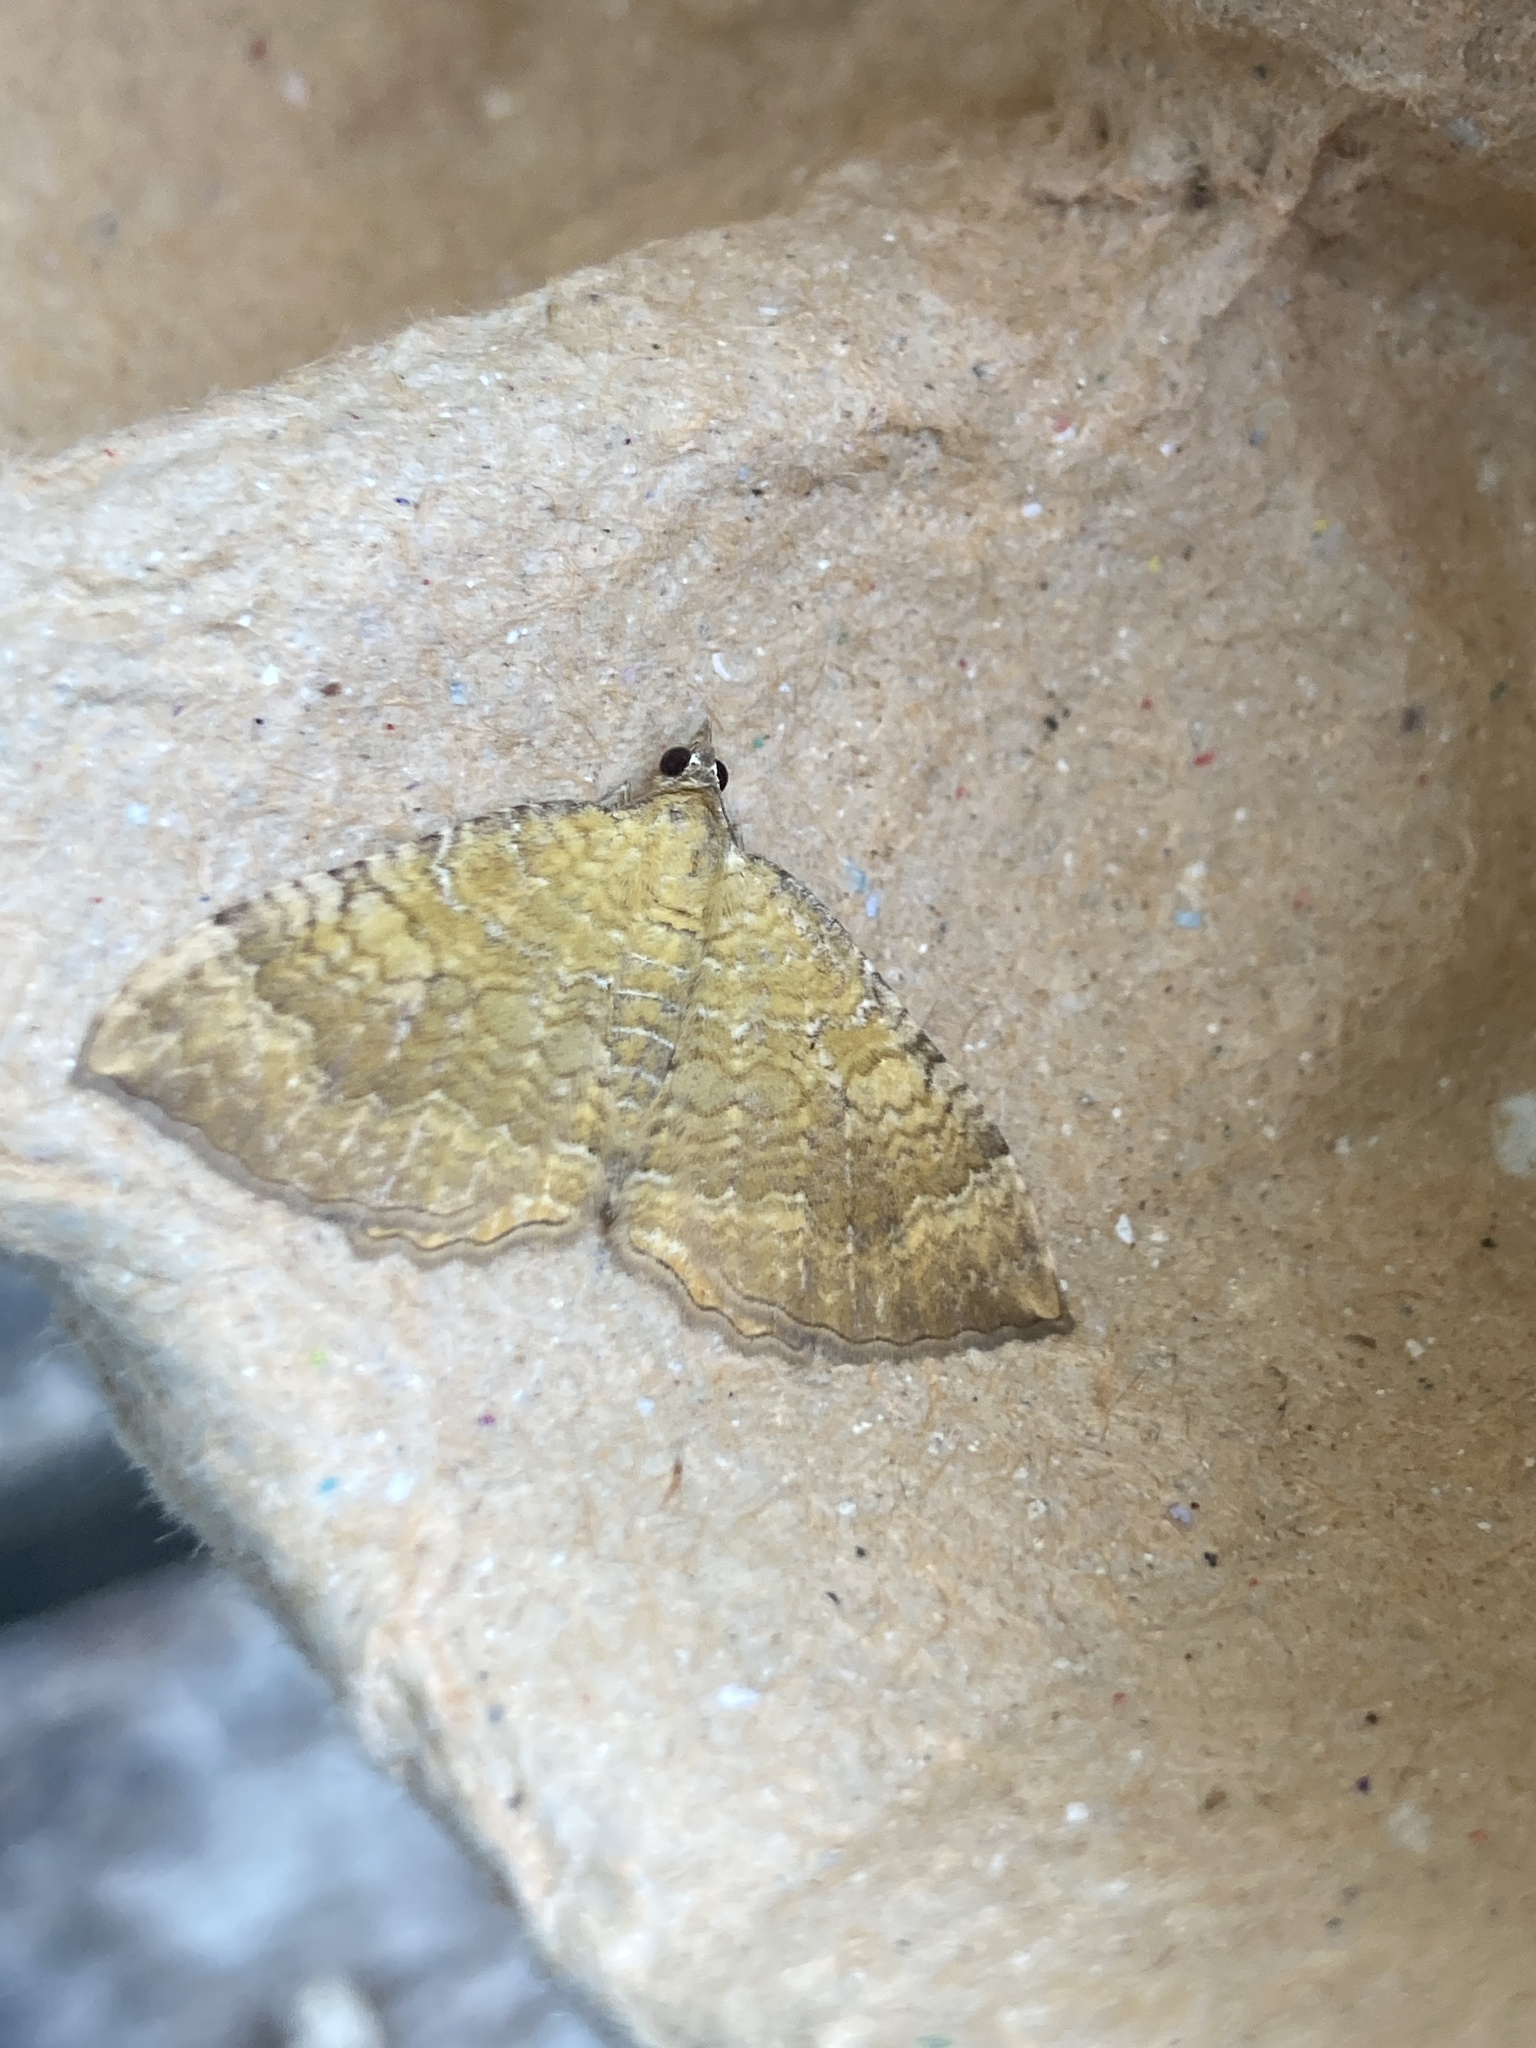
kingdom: Animalia
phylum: Arthropoda
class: Insecta
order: Lepidoptera
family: Geometridae
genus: Camptogramma
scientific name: Camptogramma bilineata
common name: Yellow shell
